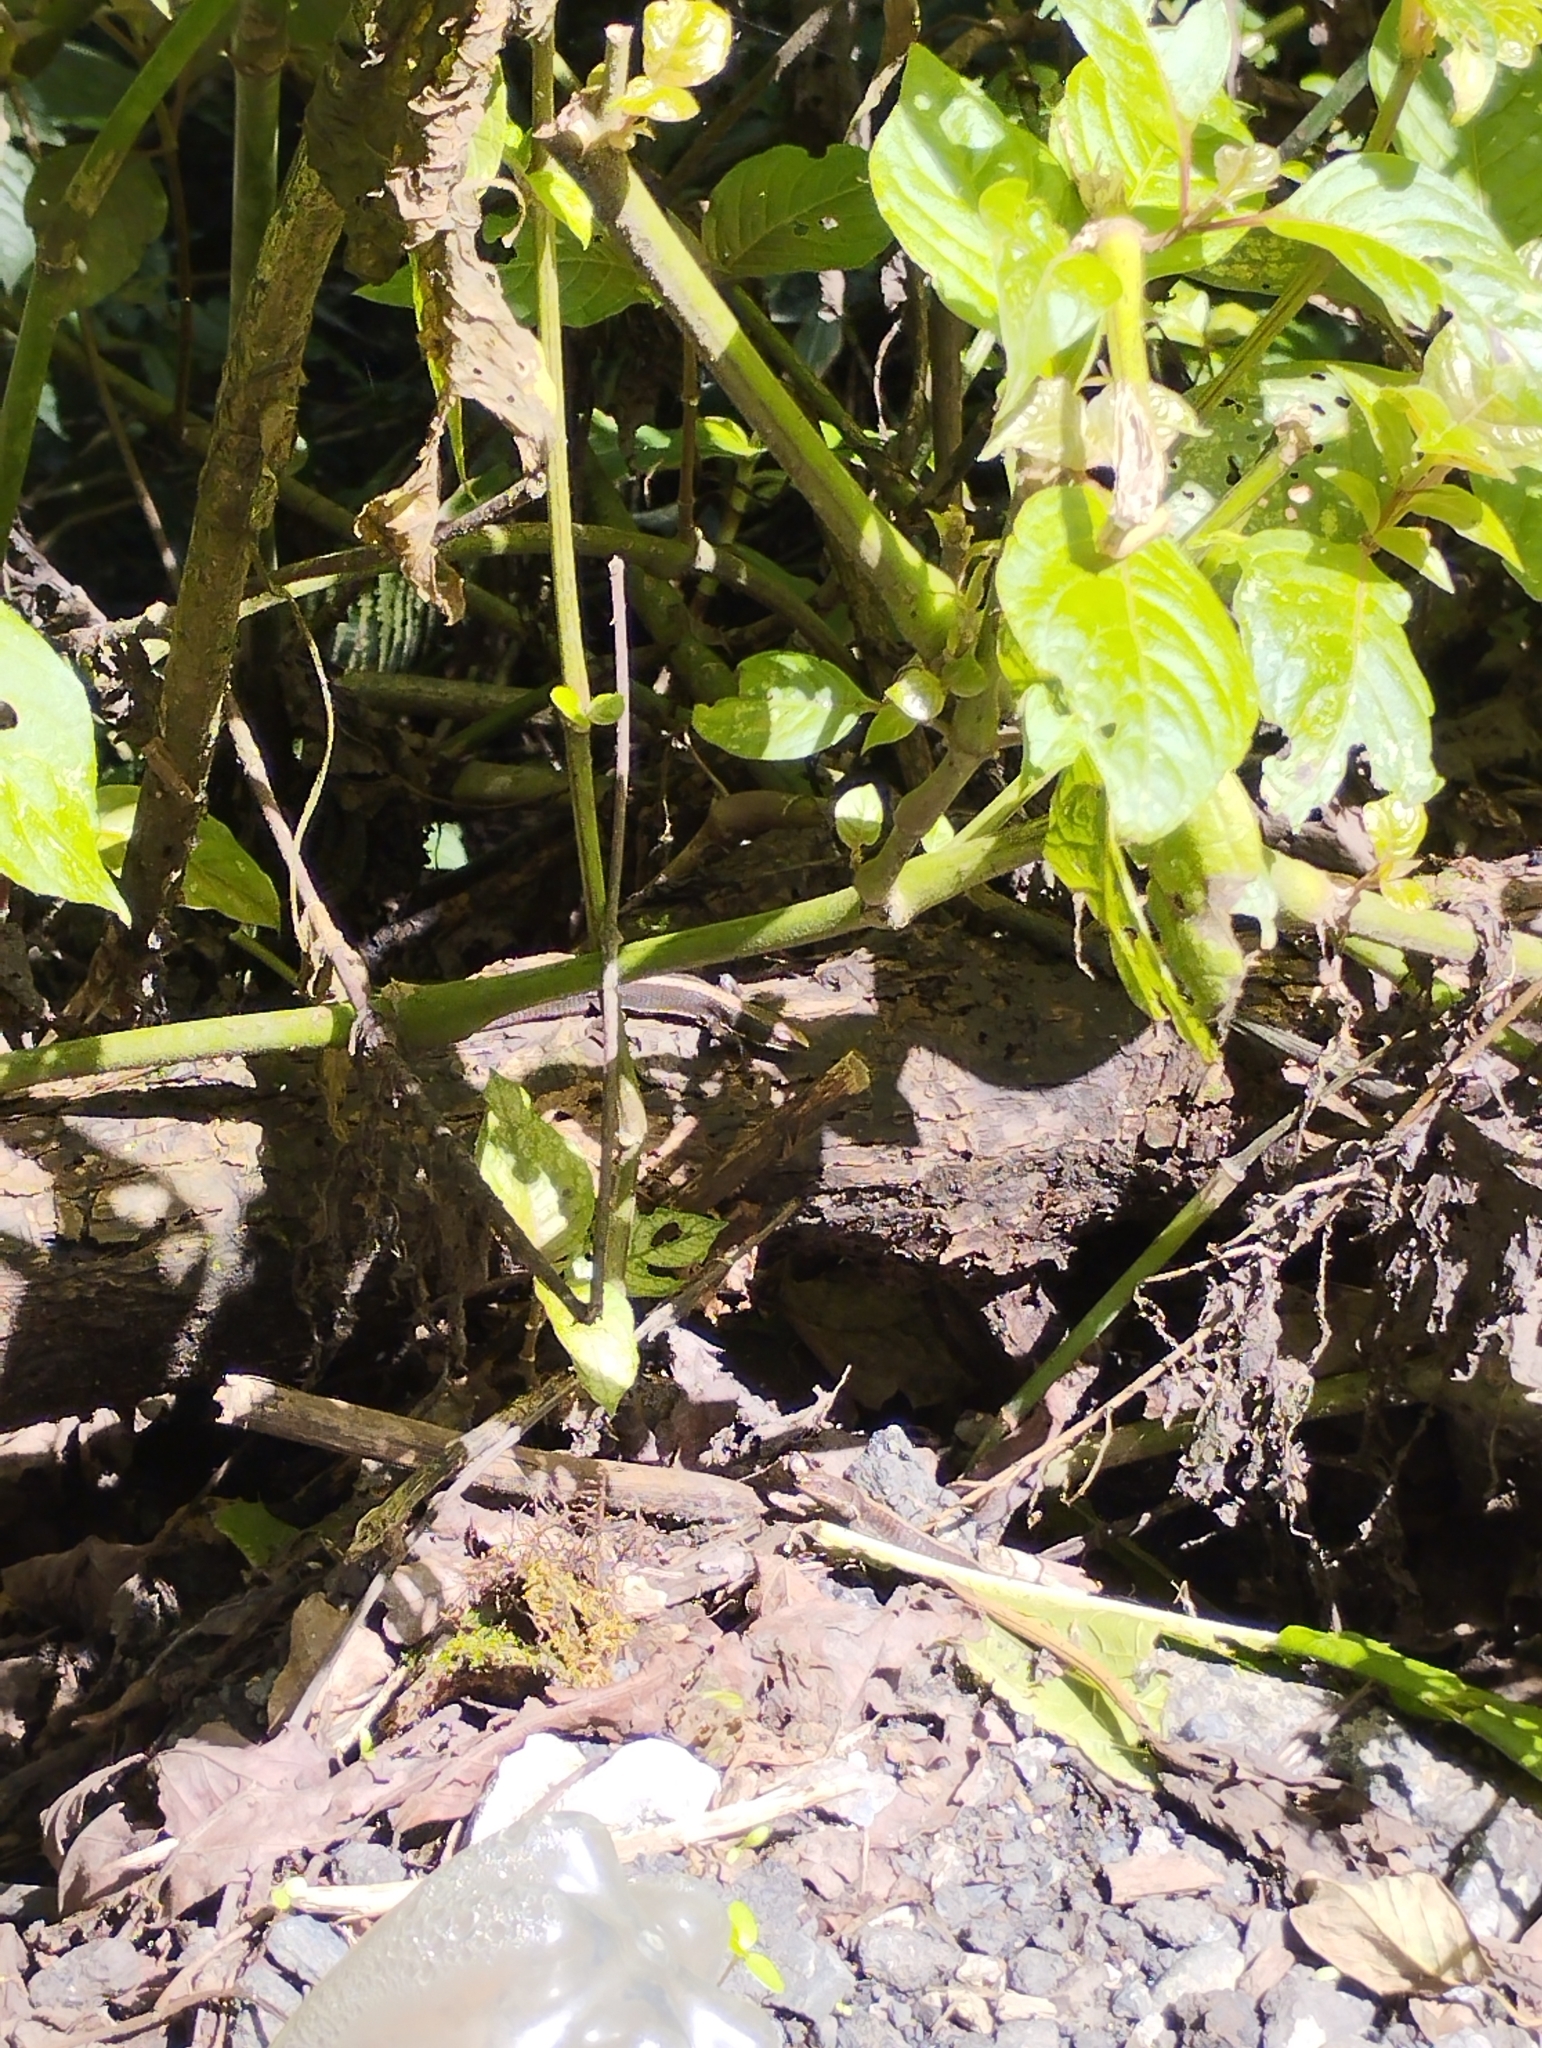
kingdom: Animalia
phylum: Chordata
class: Squamata
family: Gymnophthalmidae
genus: Pholidobolus
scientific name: Pholidobolus vertebralis
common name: Brown prionodactylus
